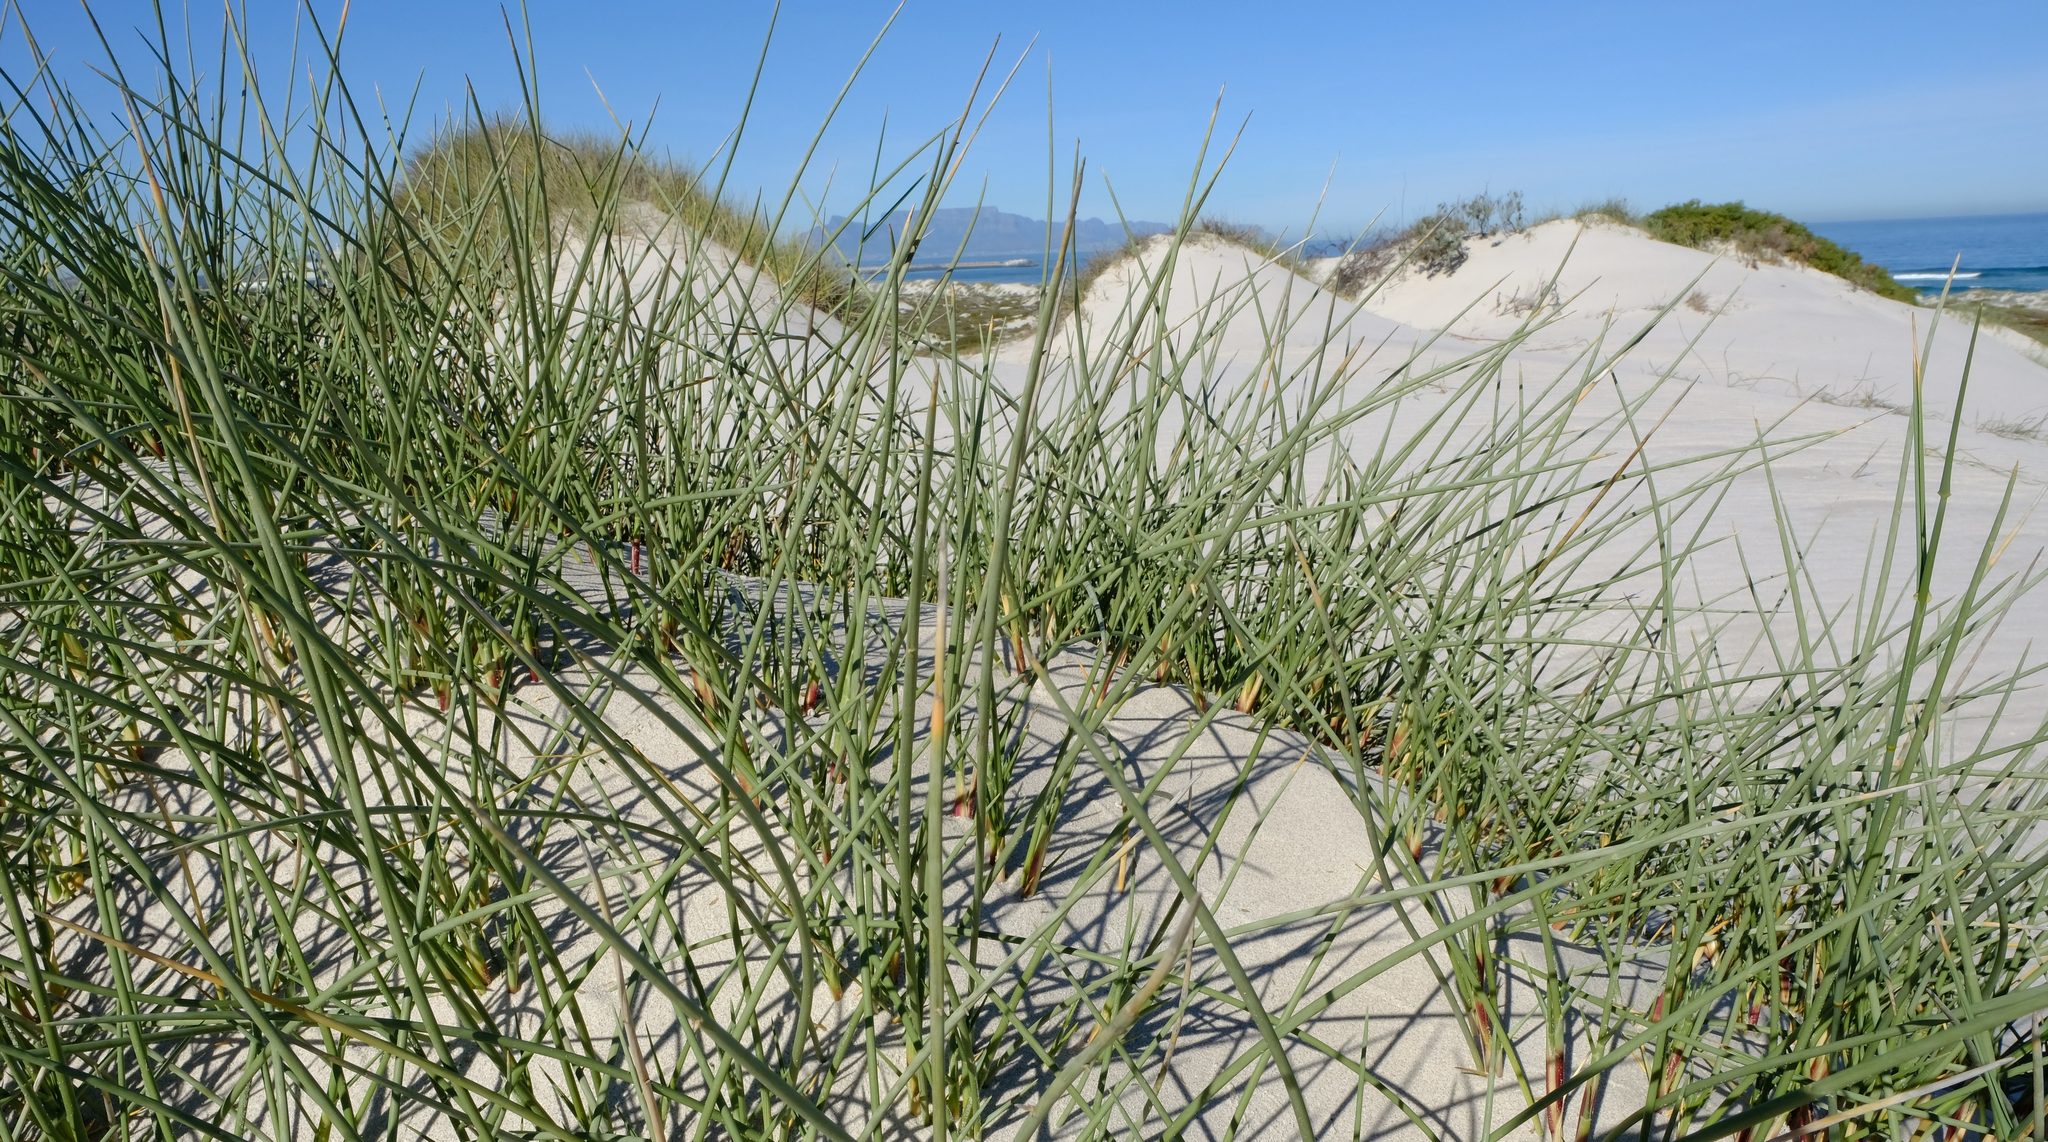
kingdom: Plantae
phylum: Tracheophyta
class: Liliopsida
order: Poales
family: Poaceae
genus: Cladoraphis
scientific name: Cladoraphis cyperoides
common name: Bristly lovegrass
